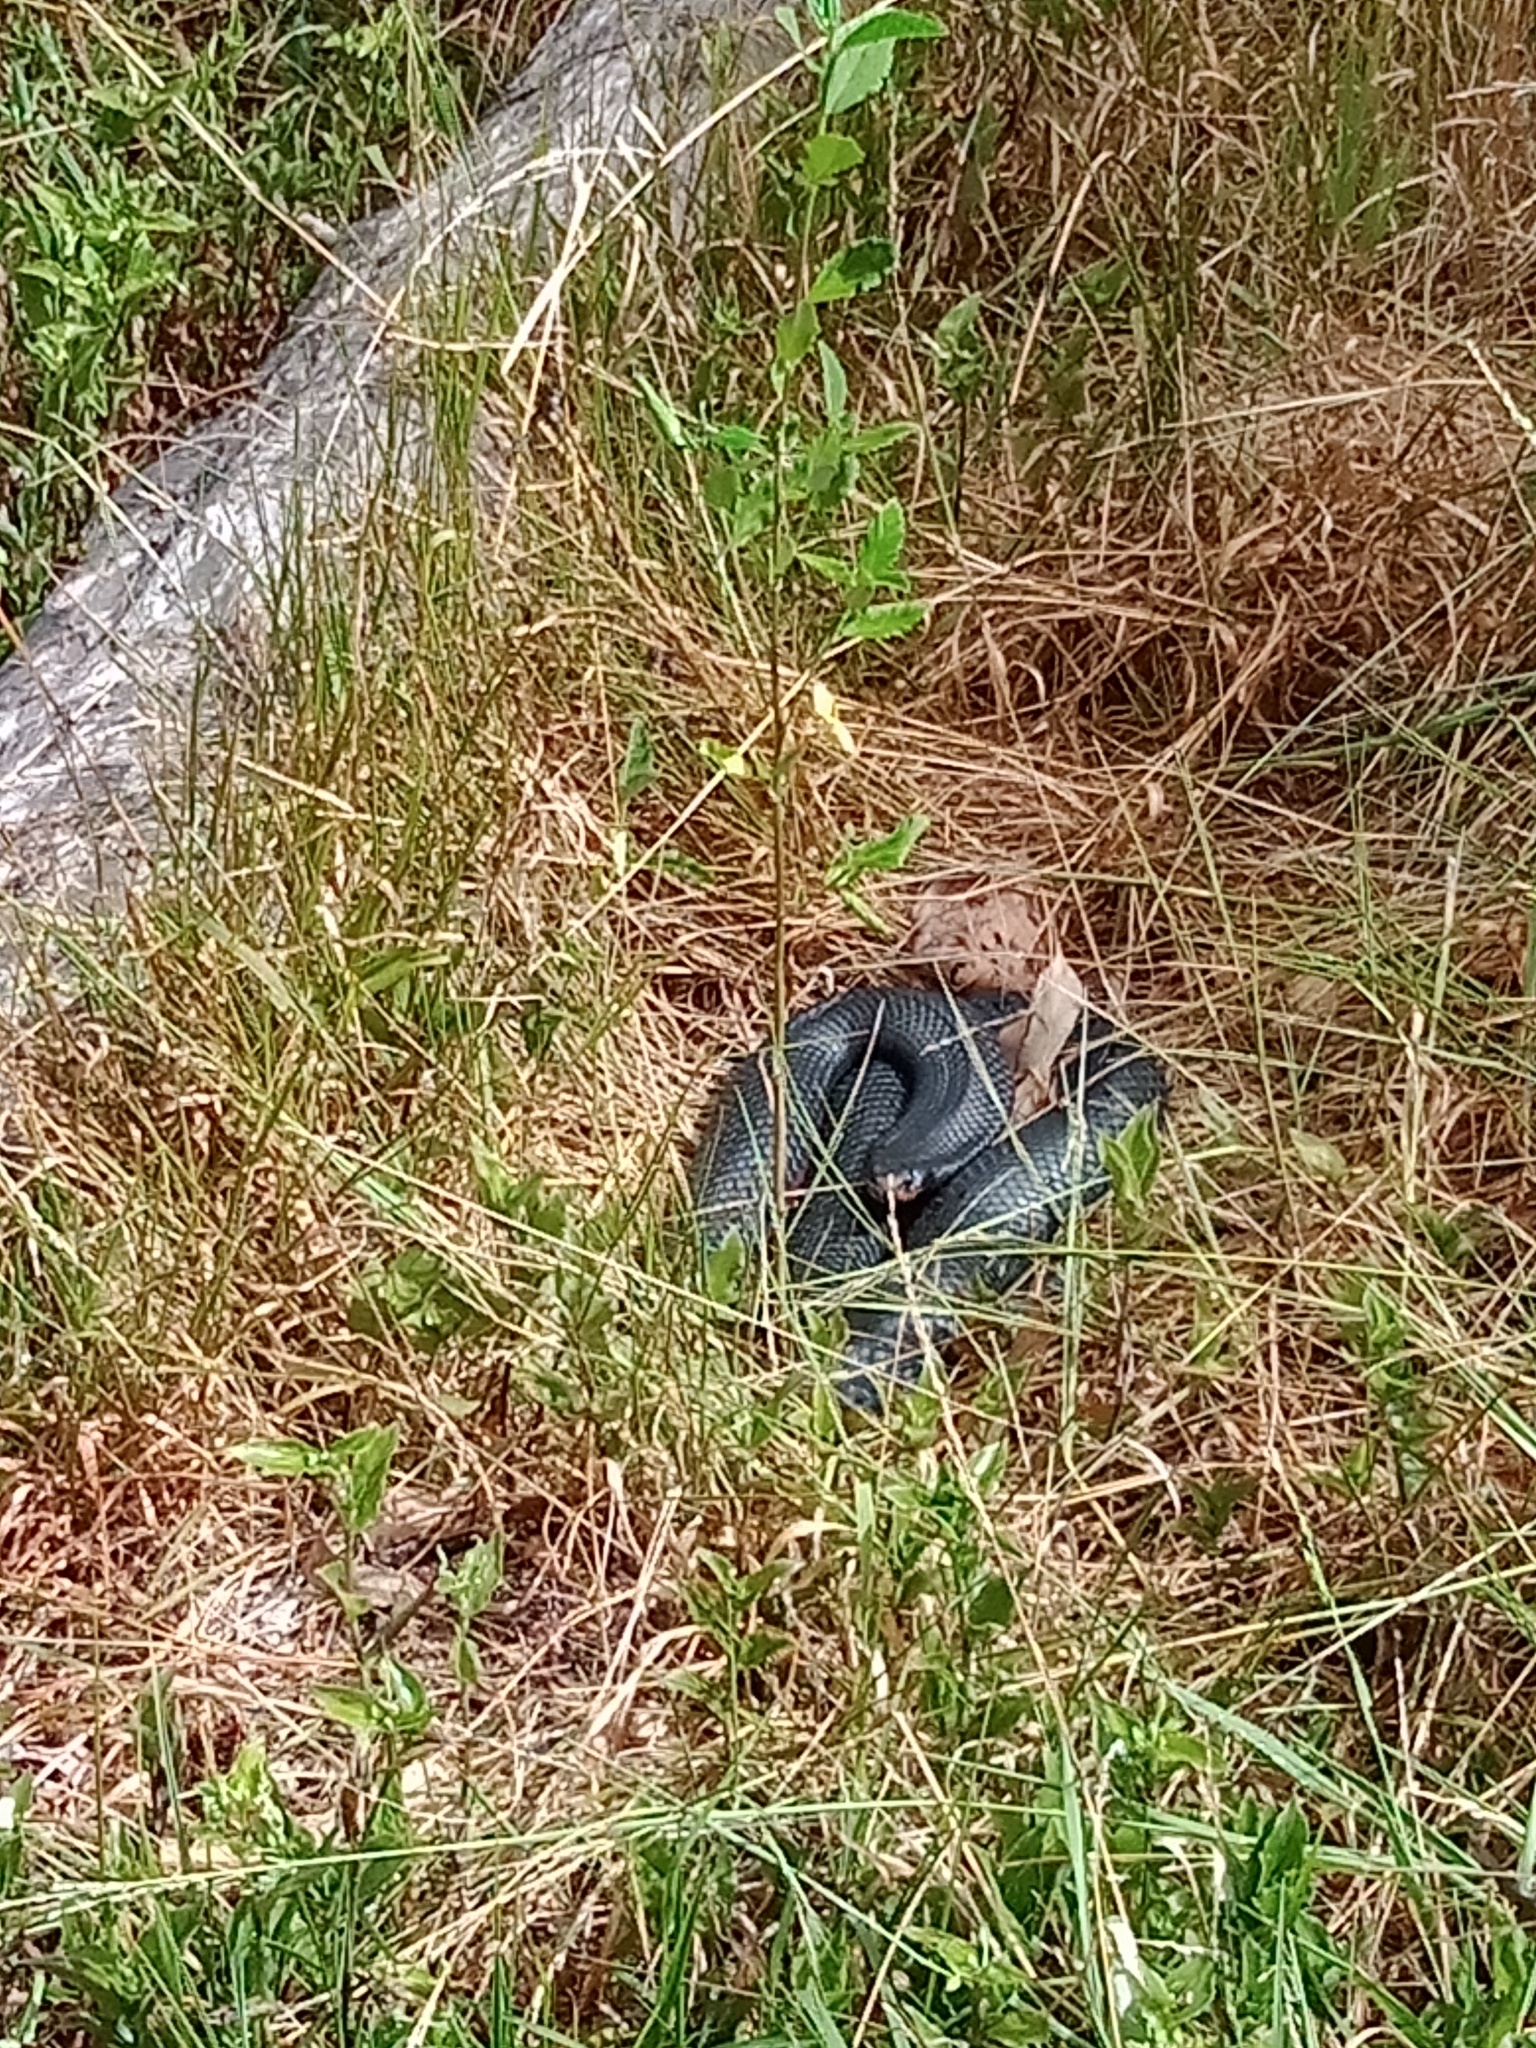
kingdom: Animalia
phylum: Chordata
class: Squamata
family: Elapidae
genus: Pseudechis
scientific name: Pseudechis porphyriacus
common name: Australian black snake
